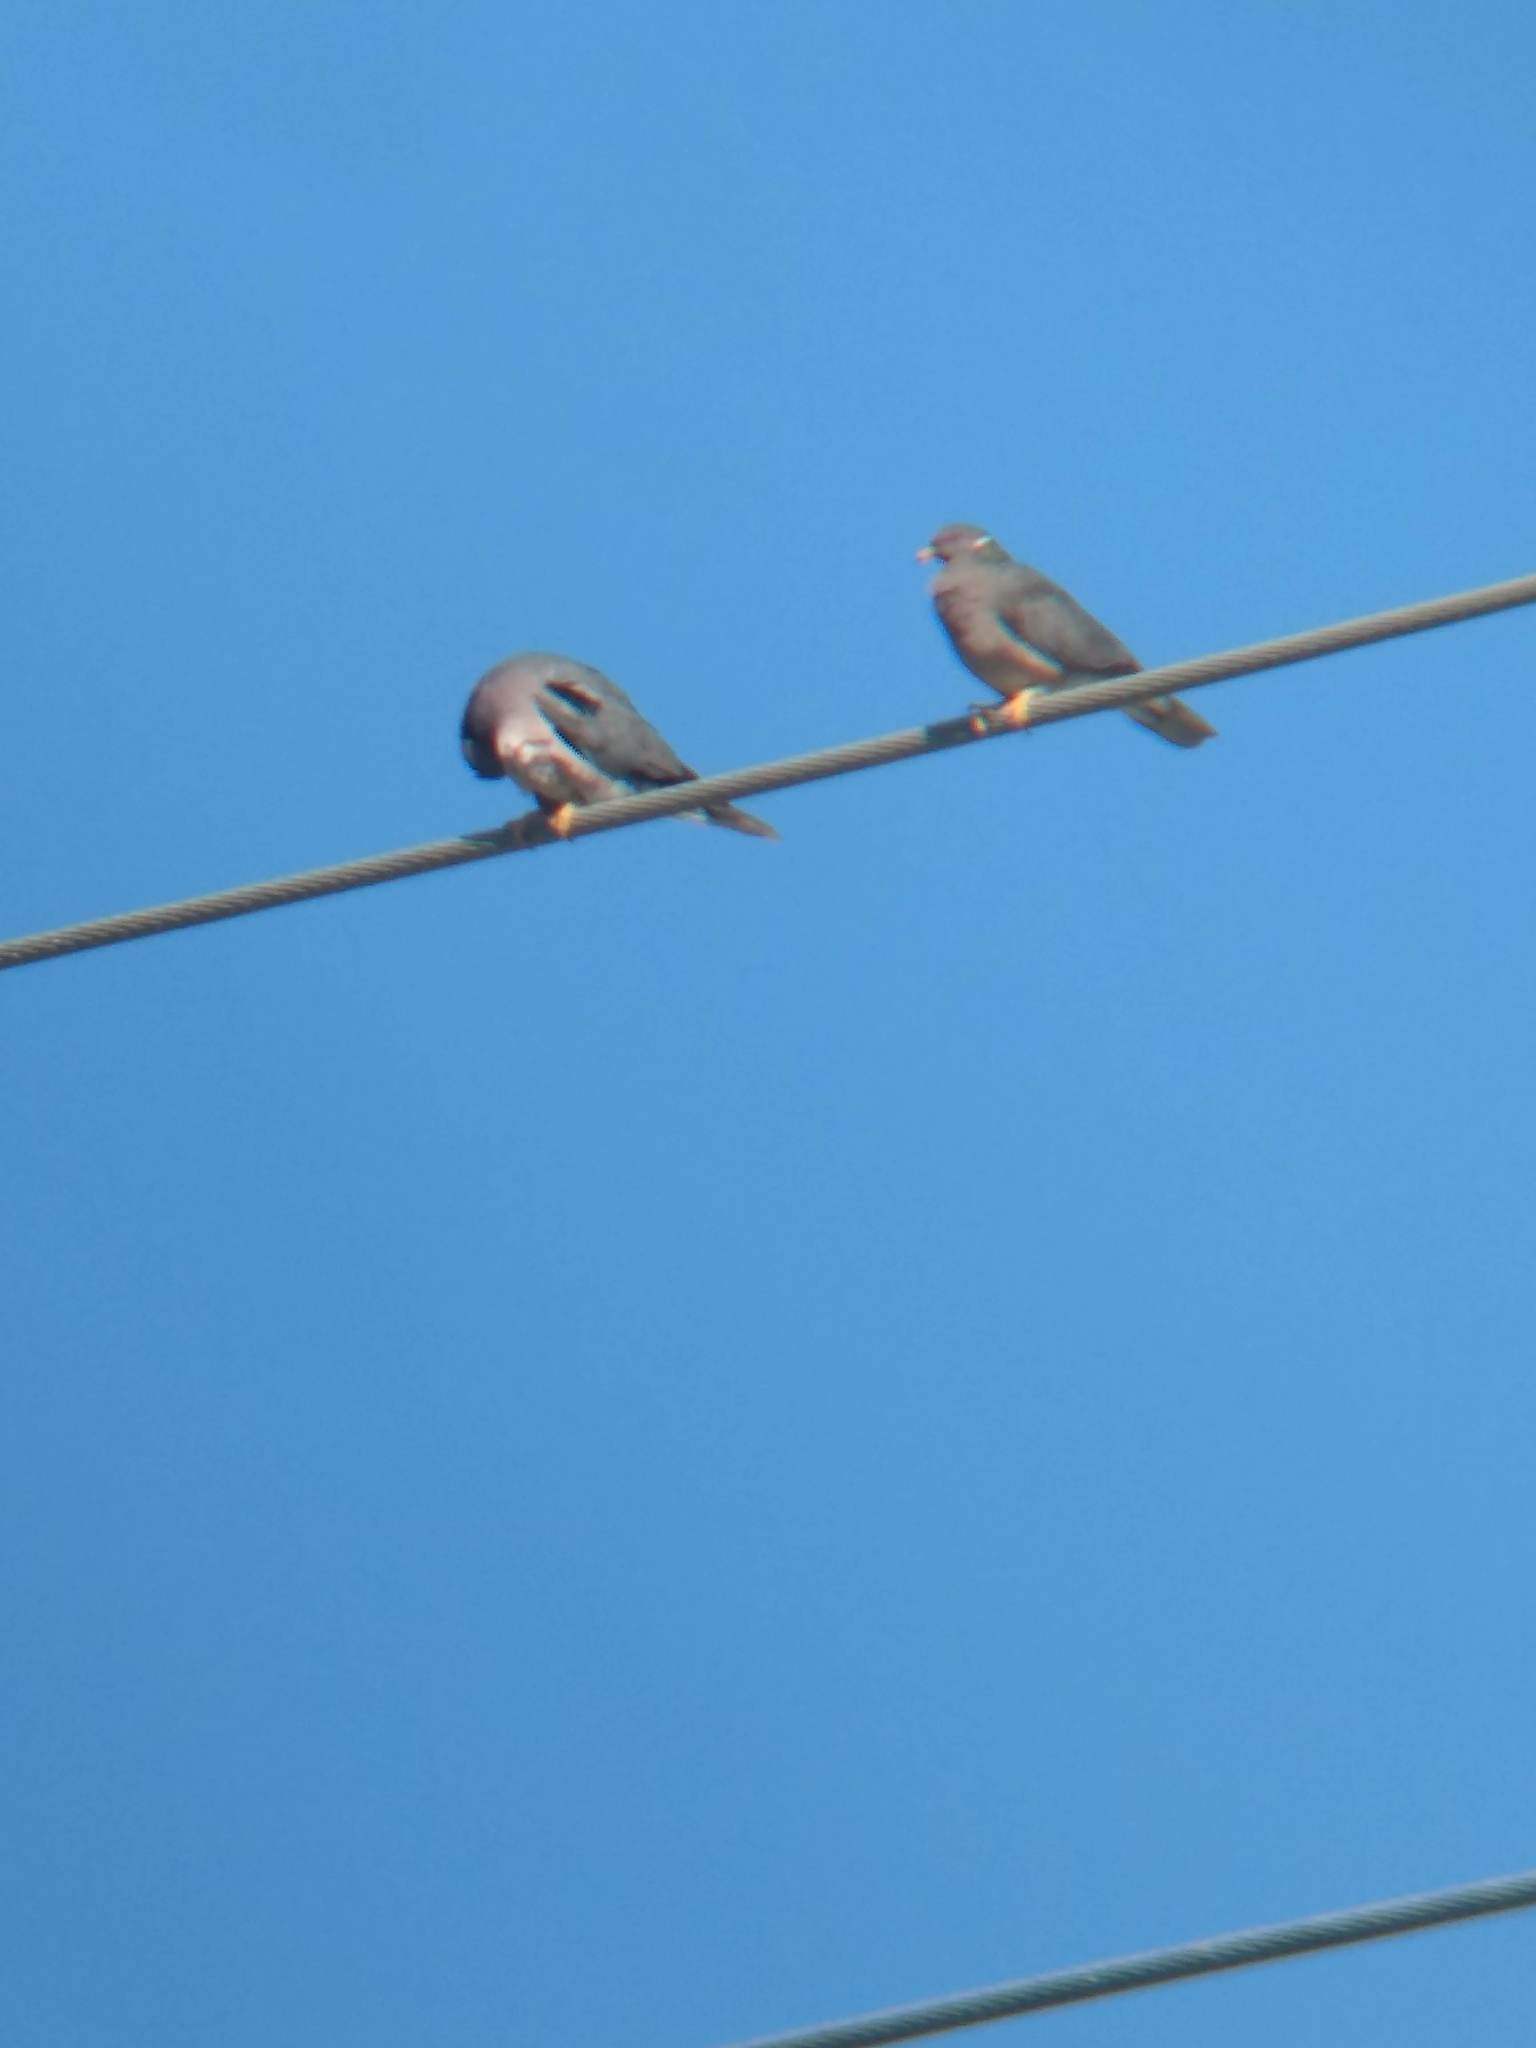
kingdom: Animalia
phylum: Chordata
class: Aves
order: Columbiformes
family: Columbidae
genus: Patagioenas
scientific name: Patagioenas fasciata
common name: Band-tailed pigeon
